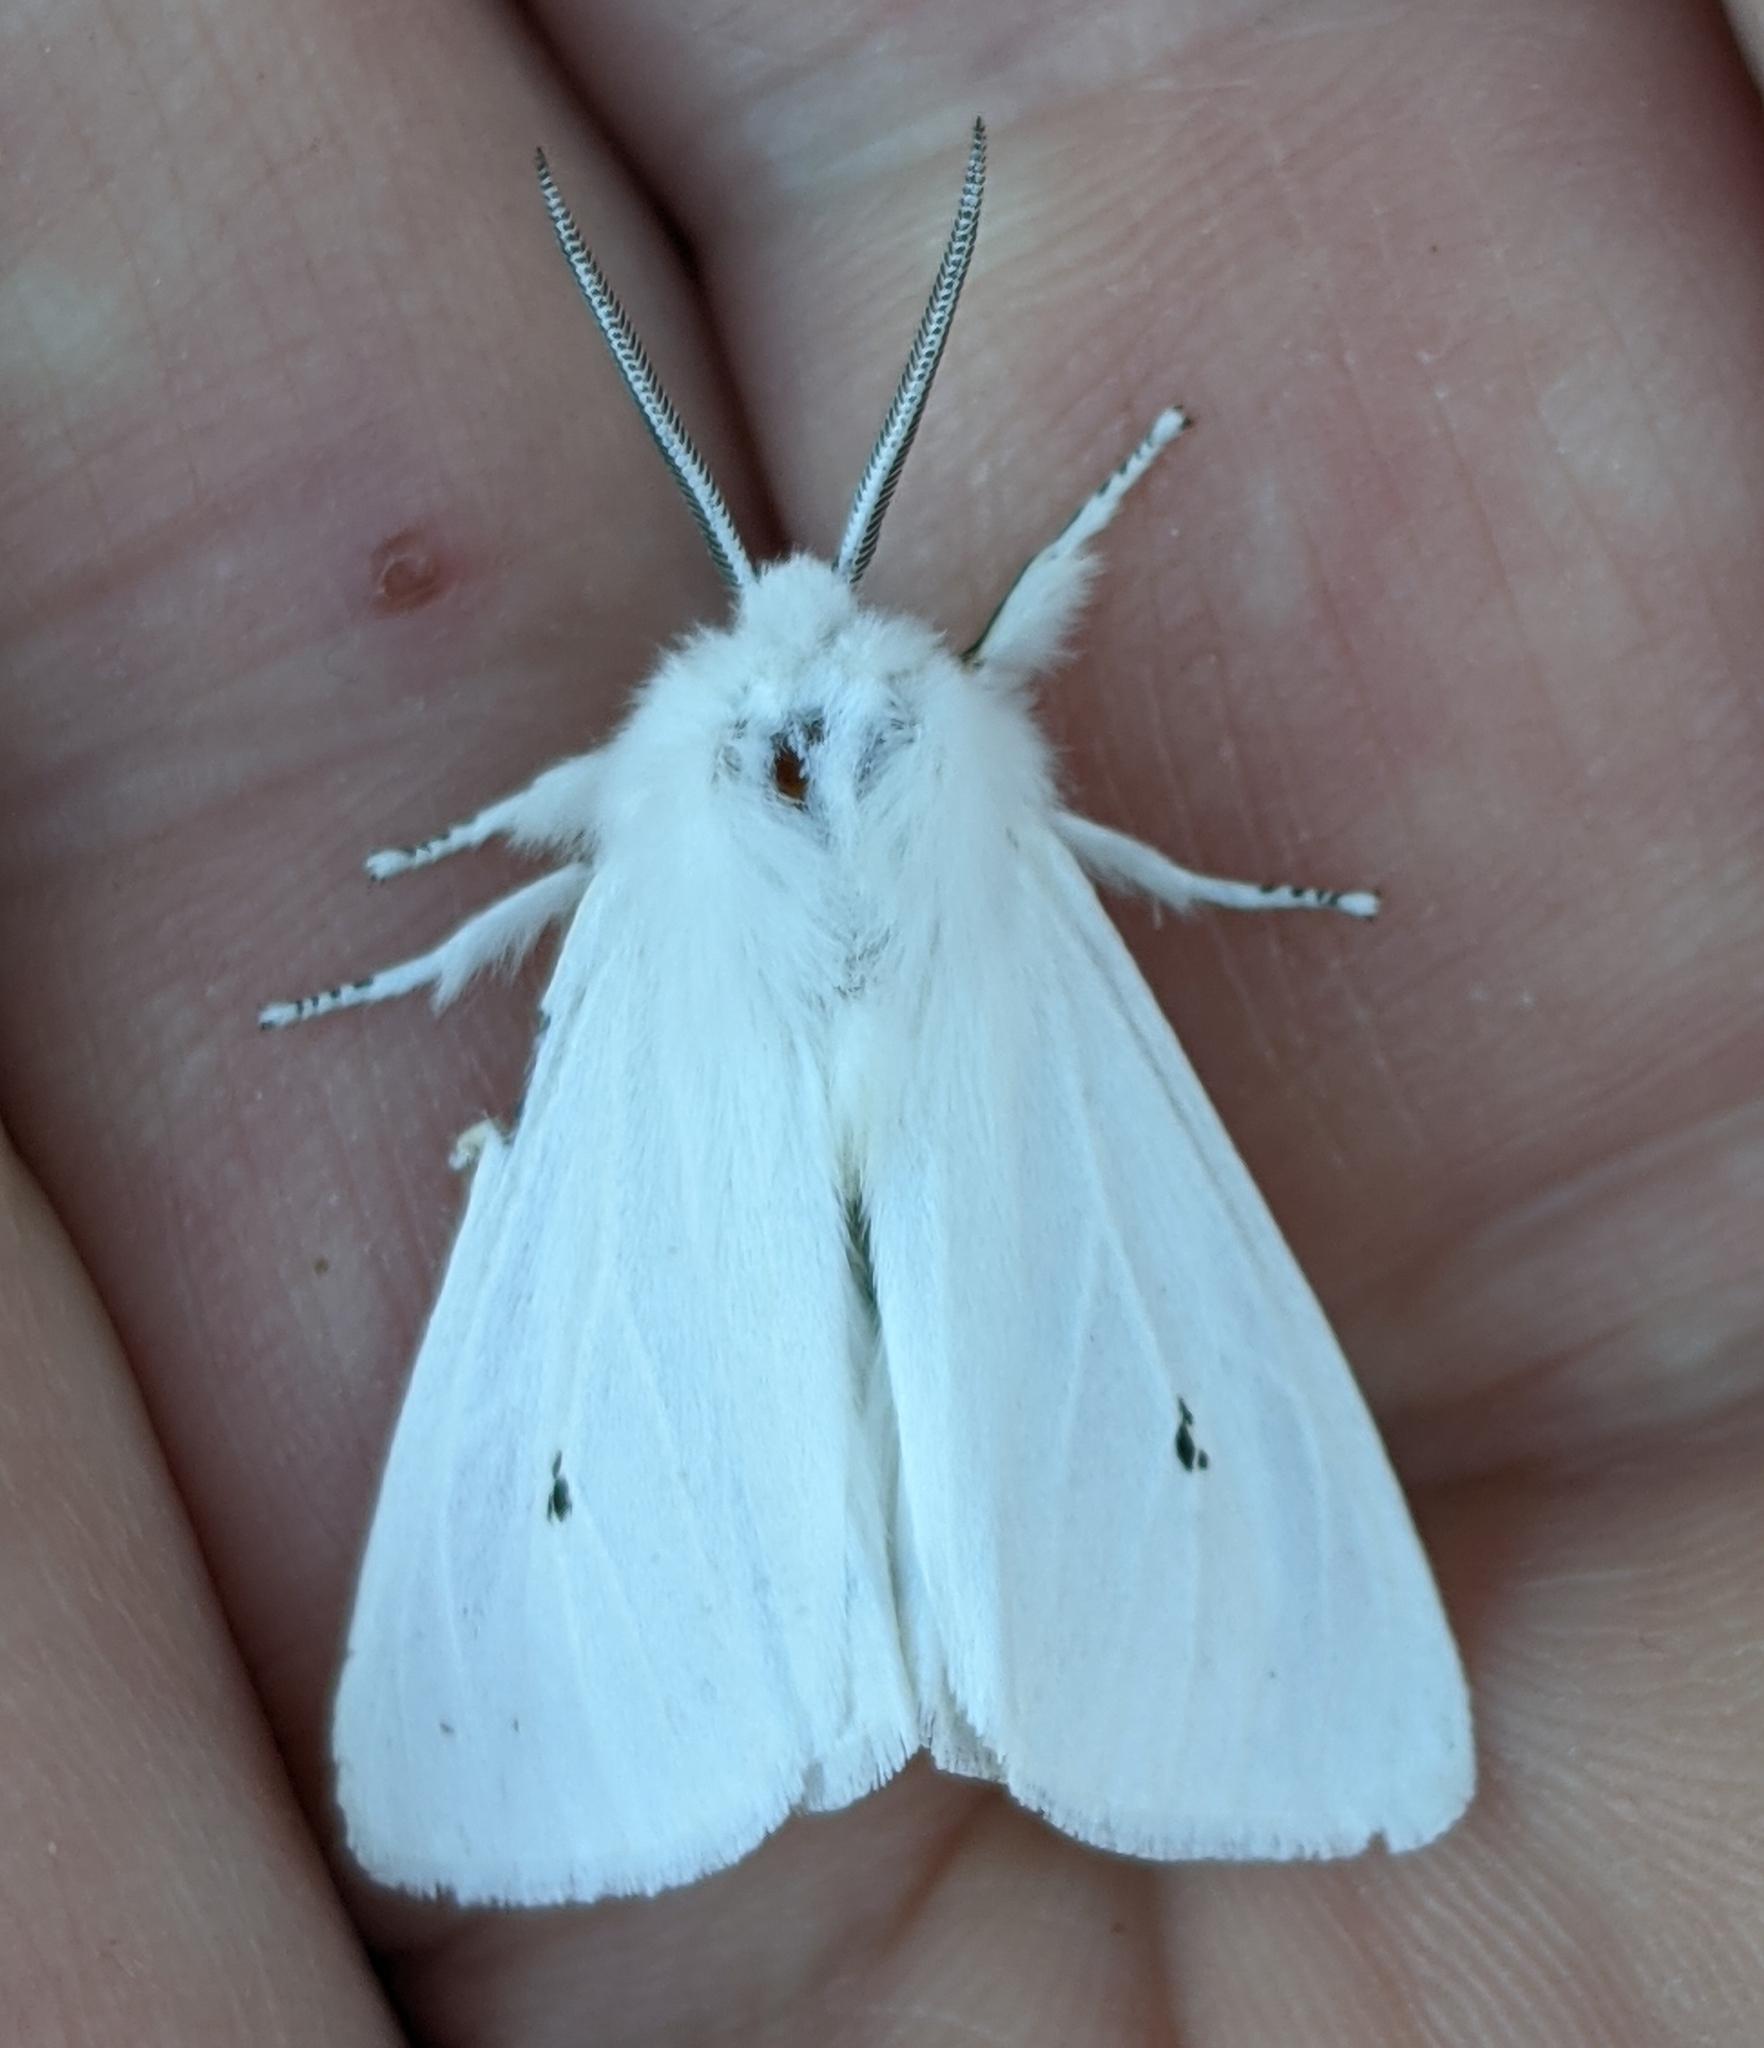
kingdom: Animalia
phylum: Arthropoda
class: Insecta
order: Lepidoptera
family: Erebidae
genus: Spilosoma
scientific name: Spilosoma virginica
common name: Virginia tiger moth
